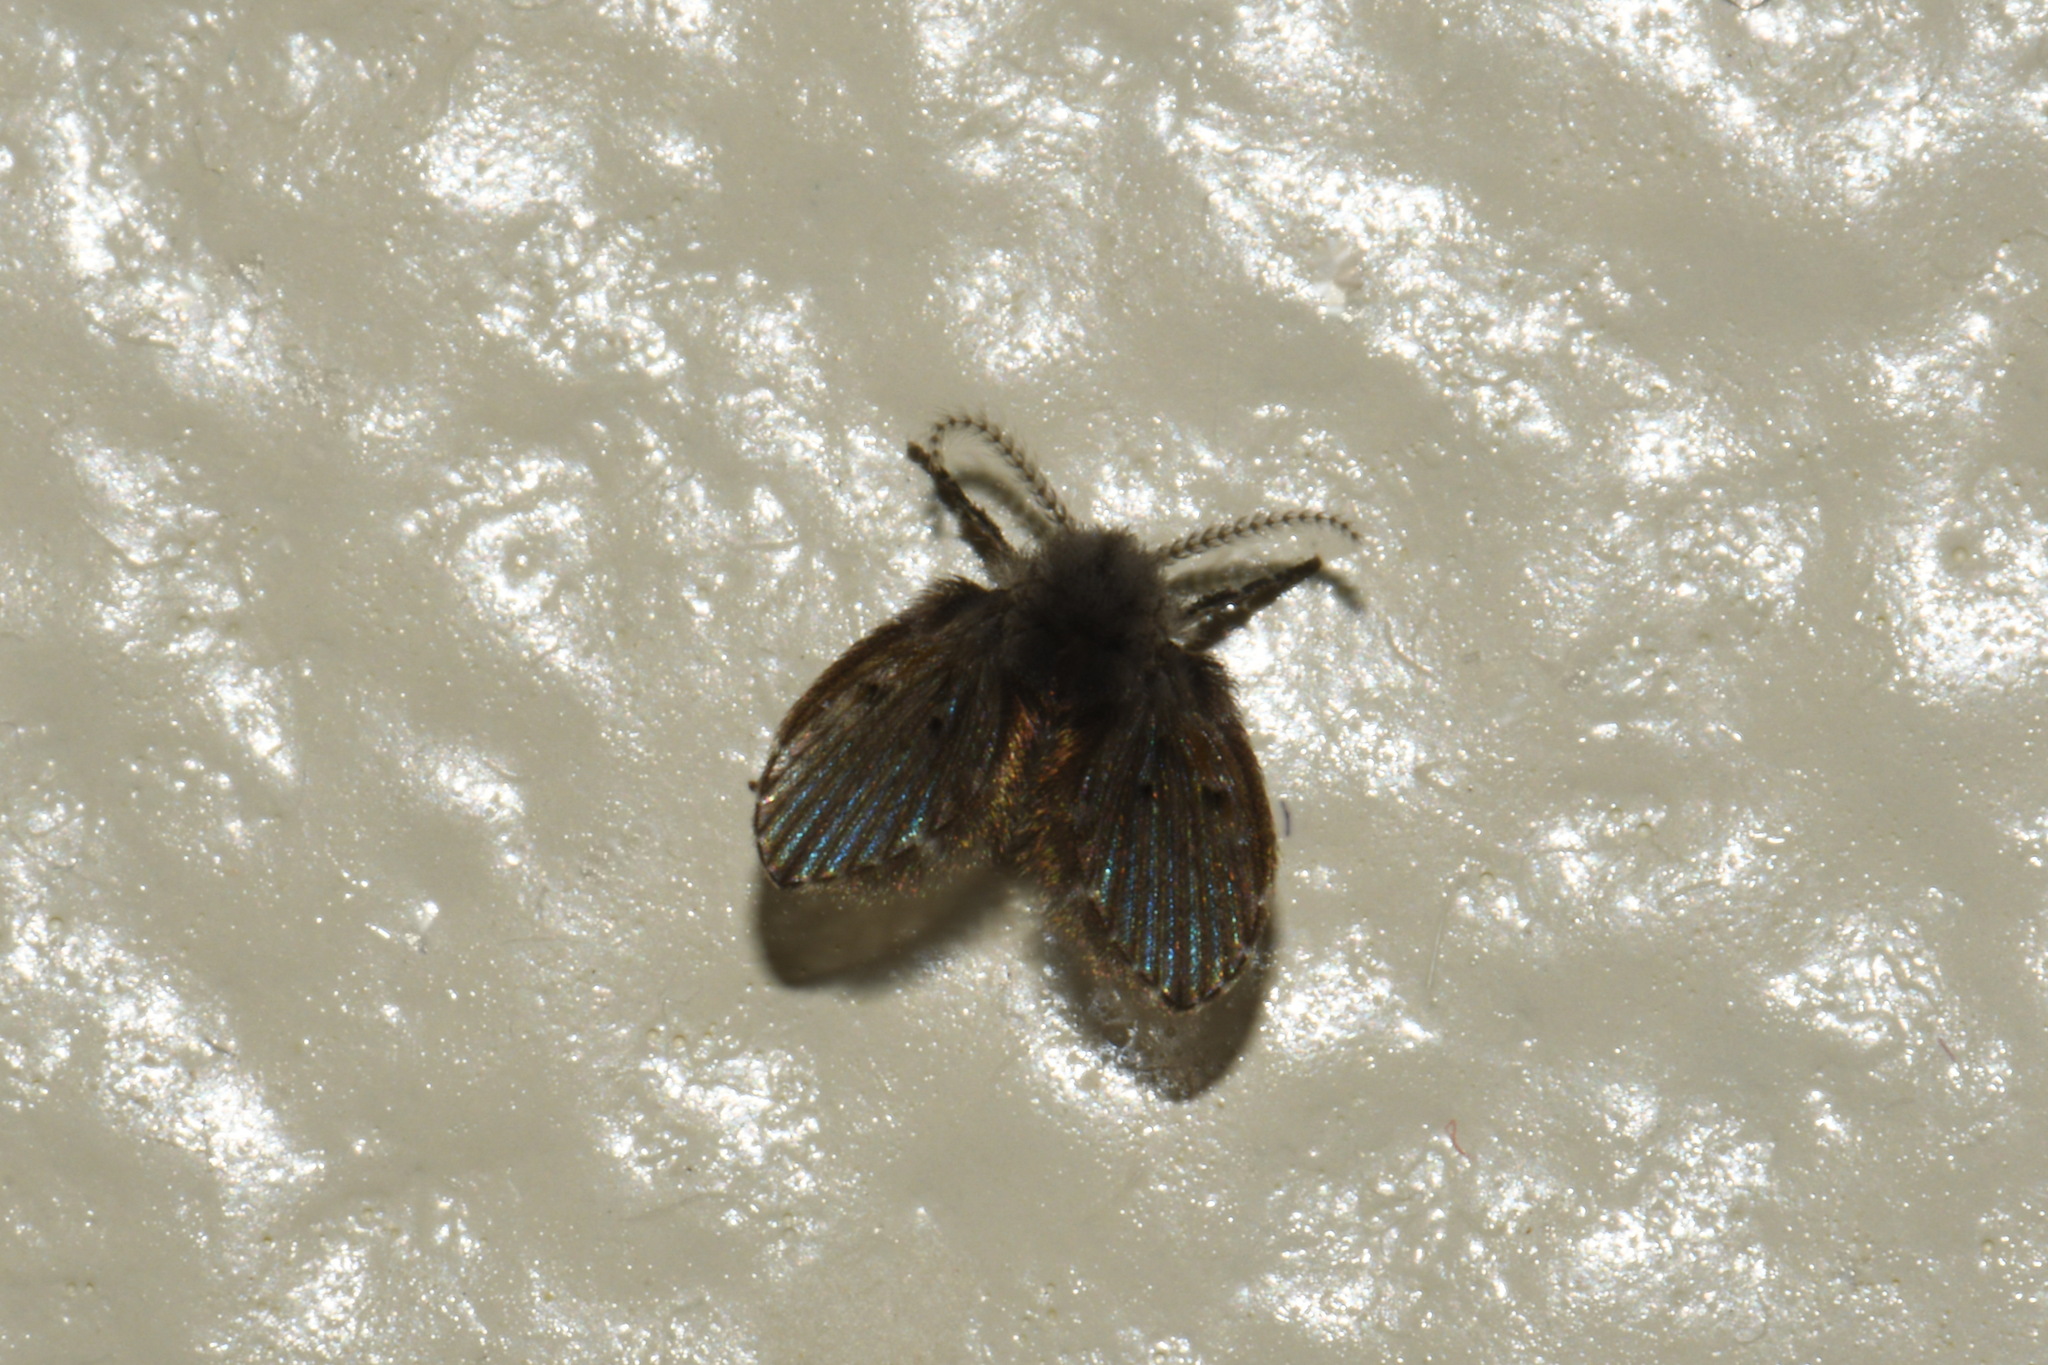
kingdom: Animalia
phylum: Arthropoda
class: Insecta
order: Diptera
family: Psychodidae
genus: Clogmia
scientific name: Clogmia albipunctatus
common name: White-spotted moth fly
